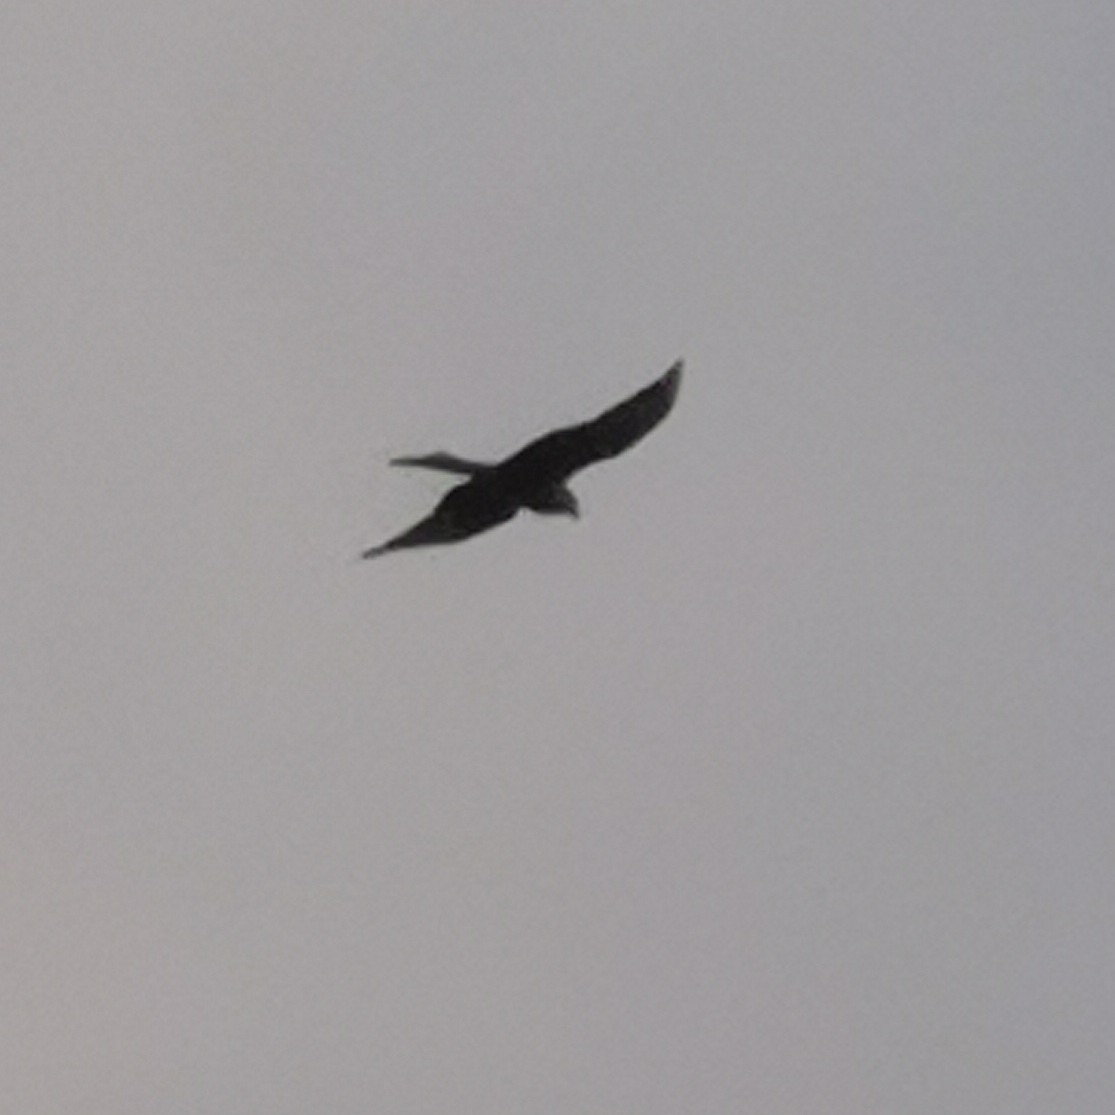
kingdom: Animalia
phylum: Chordata
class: Aves
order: Accipitriformes
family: Accipitridae
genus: Milvus
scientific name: Milvus milvus
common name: Red kite
